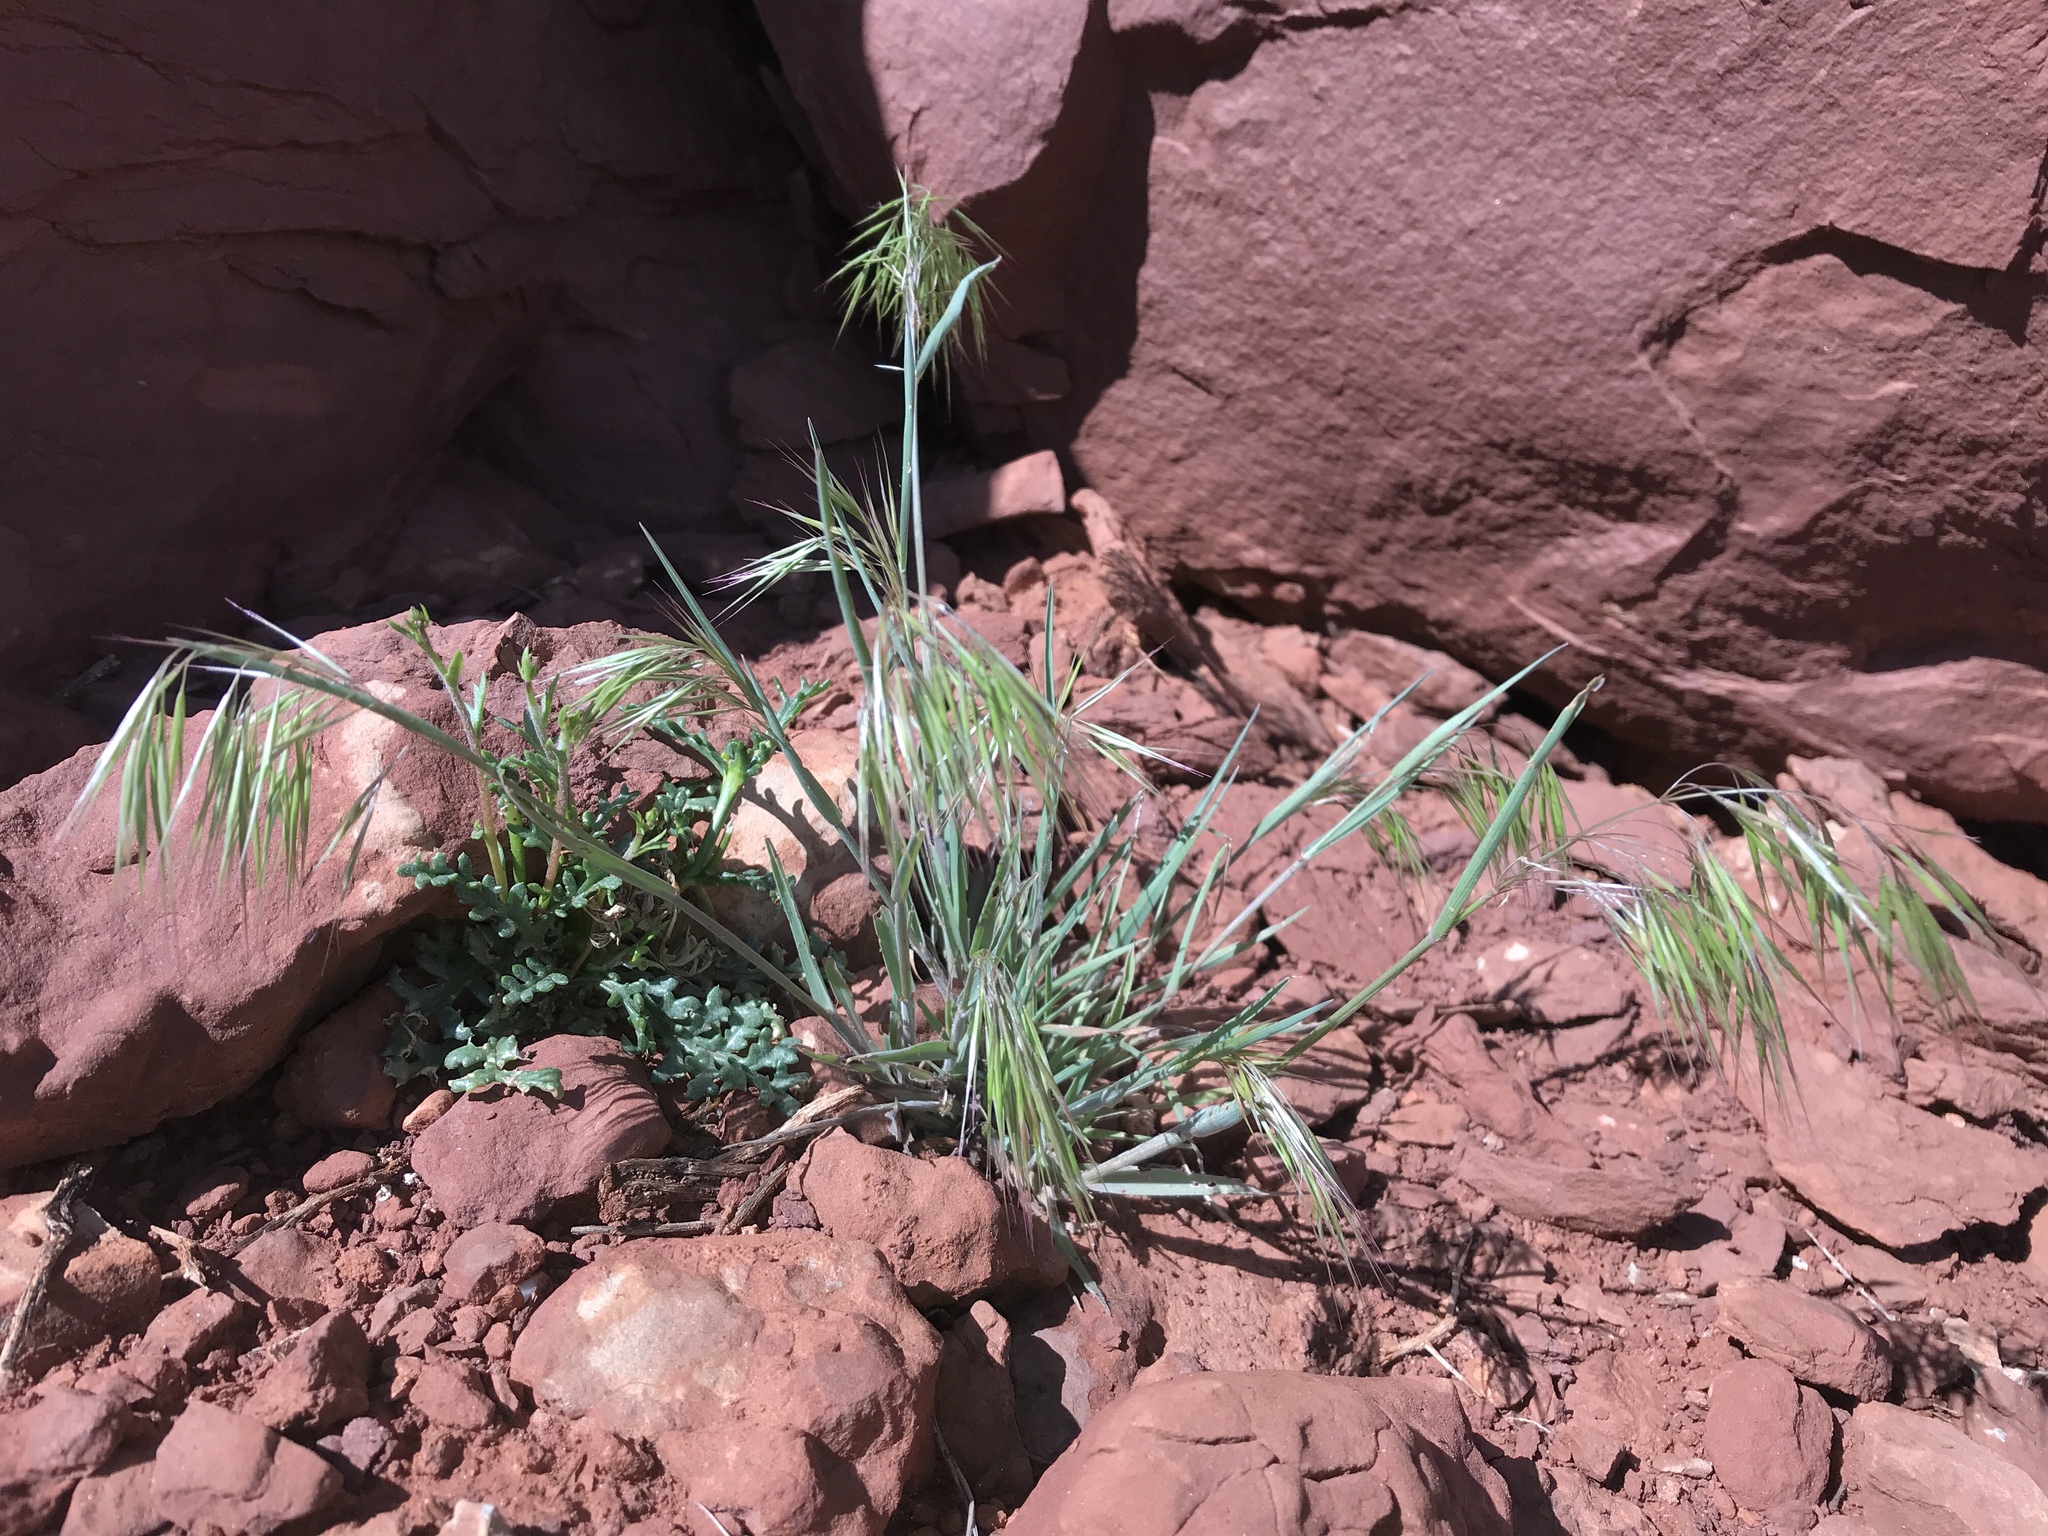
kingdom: Plantae
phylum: Tracheophyta
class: Liliopsida
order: Poales
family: Poaceae
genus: Bromus
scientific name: Bromus tectorum
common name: Cheatgrass
